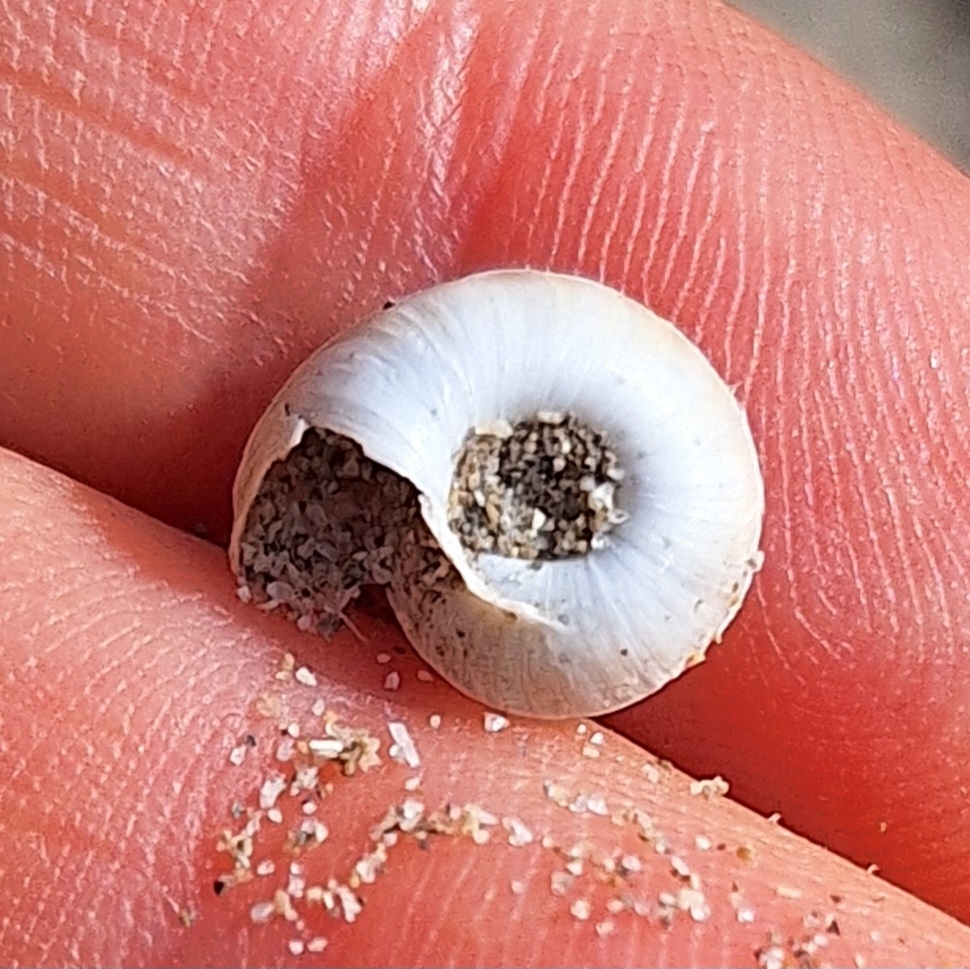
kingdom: Animalia
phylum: Mollusca
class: Gastropoda
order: Stylommatophora
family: Geomitridae
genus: Xerosecta
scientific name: Xerosecta explanata
